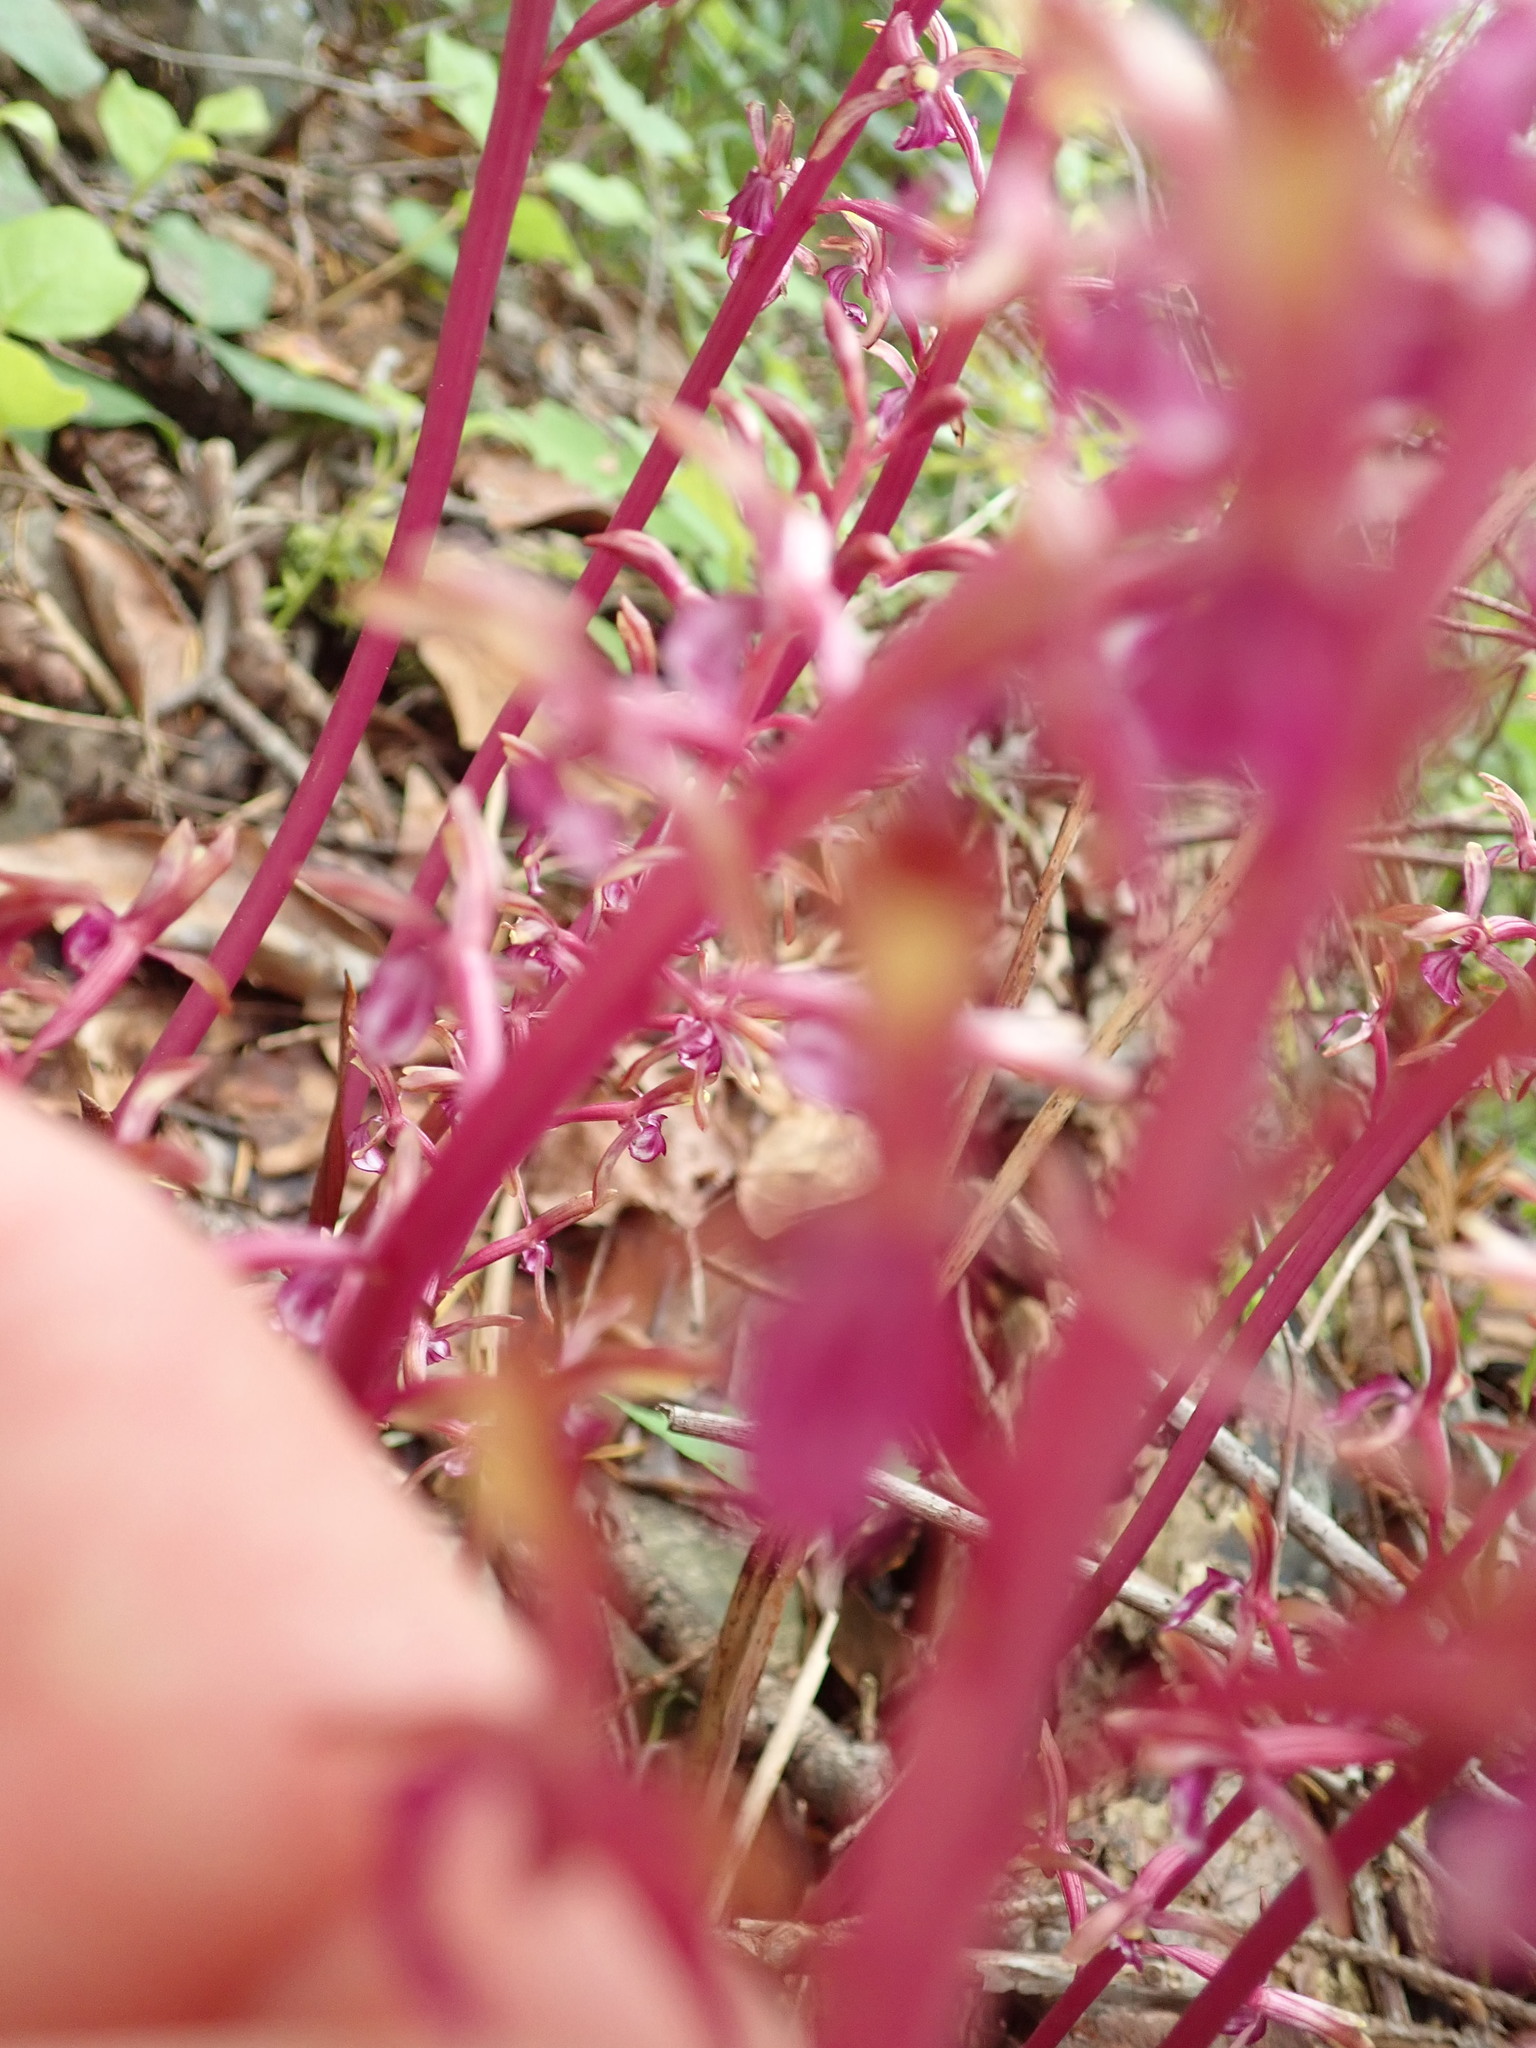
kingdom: Plantae
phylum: Tracheophyta
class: Liliopsida
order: Asparagales
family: Orchidaceae
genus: Corallorhiza
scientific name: Corallorhiza mertensiana
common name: Pacific coralroot
